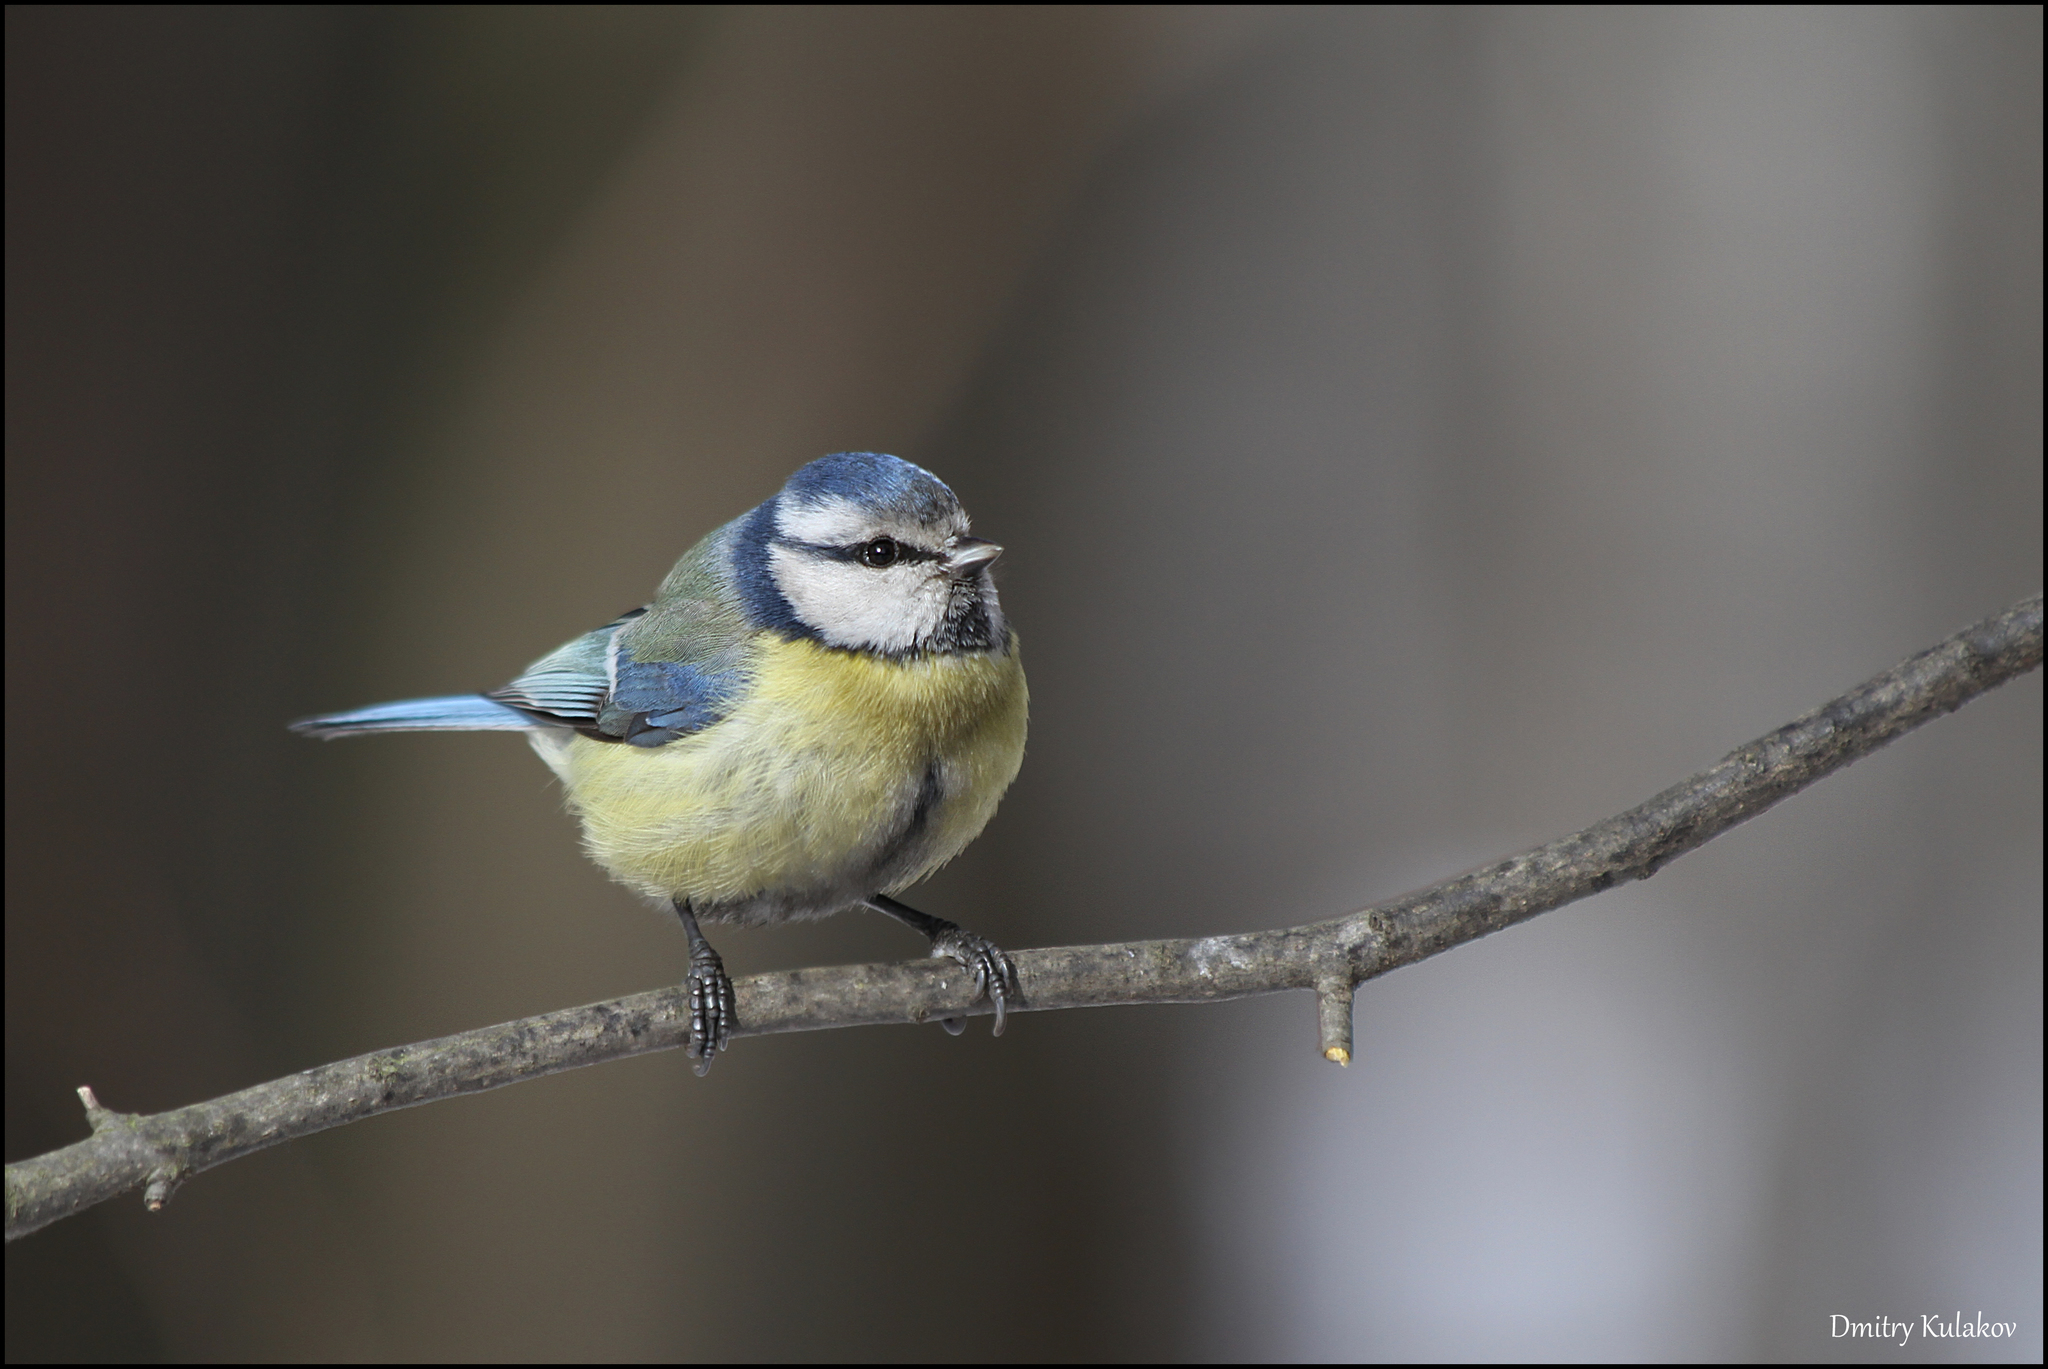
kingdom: Animalia
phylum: Chordata
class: Aves
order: Passeriformes
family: Paridae
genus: Cyanistes
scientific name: Cyanistes caeruleus
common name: Eurasian blue tit
